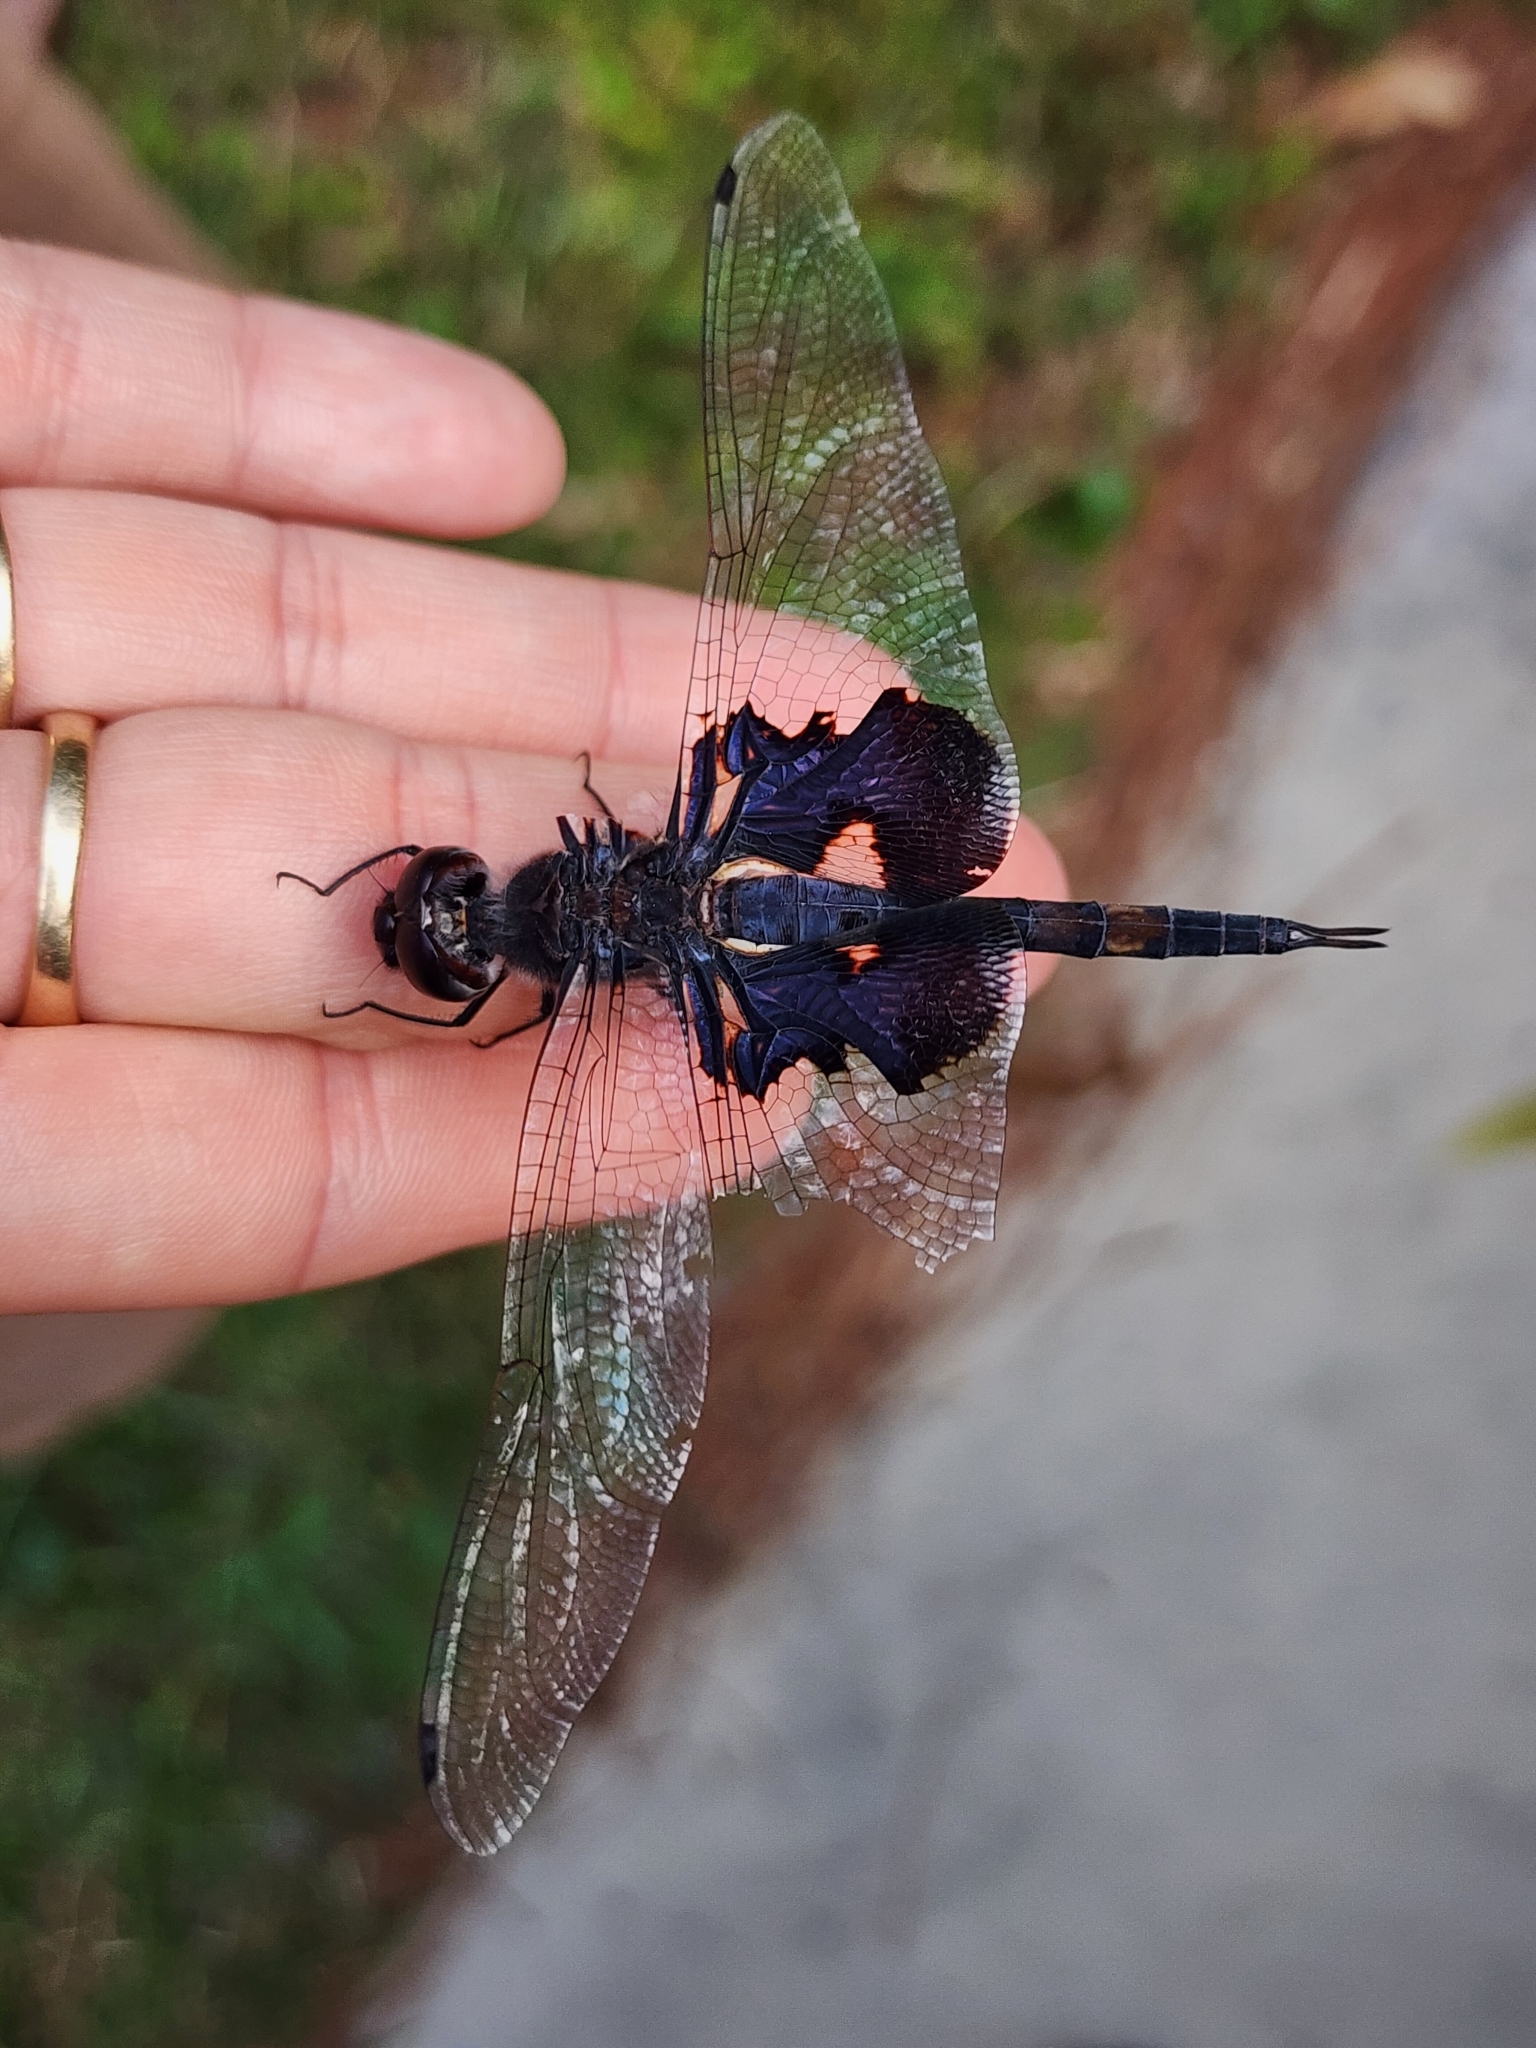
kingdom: Animalia
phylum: Arthropoda
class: Insecta
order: Odonata
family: Libellulidae
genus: Tramea
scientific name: Tramea lacerata
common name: Black saddlebags
